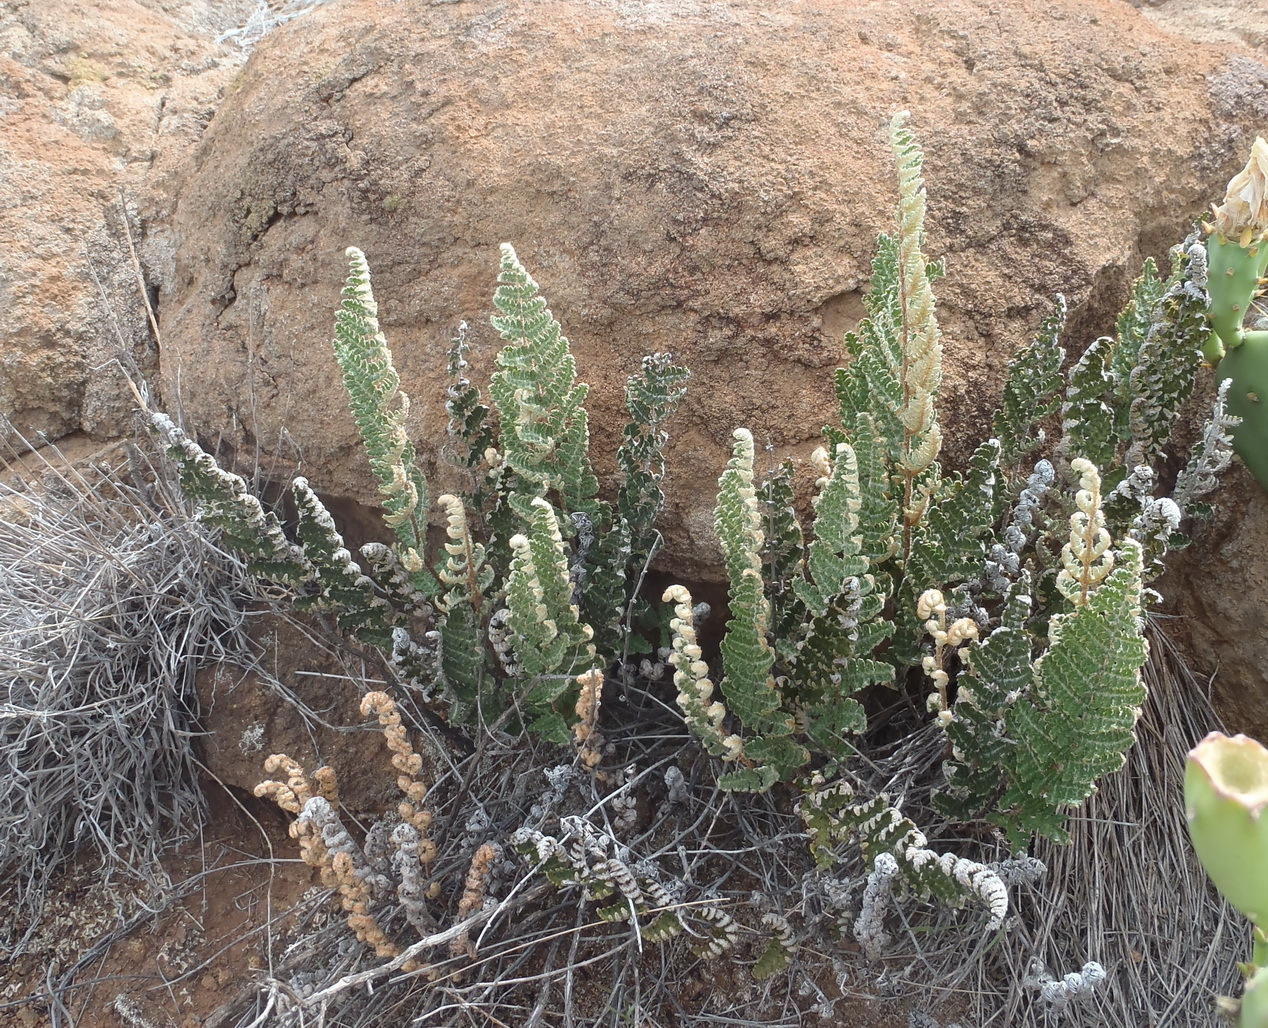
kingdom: Plantae
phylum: Tracheophyta
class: Polypodiopsida
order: Polypodiales
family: Pteridaceae
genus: Cheilanthes
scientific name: Cheilanthes eckloniana
